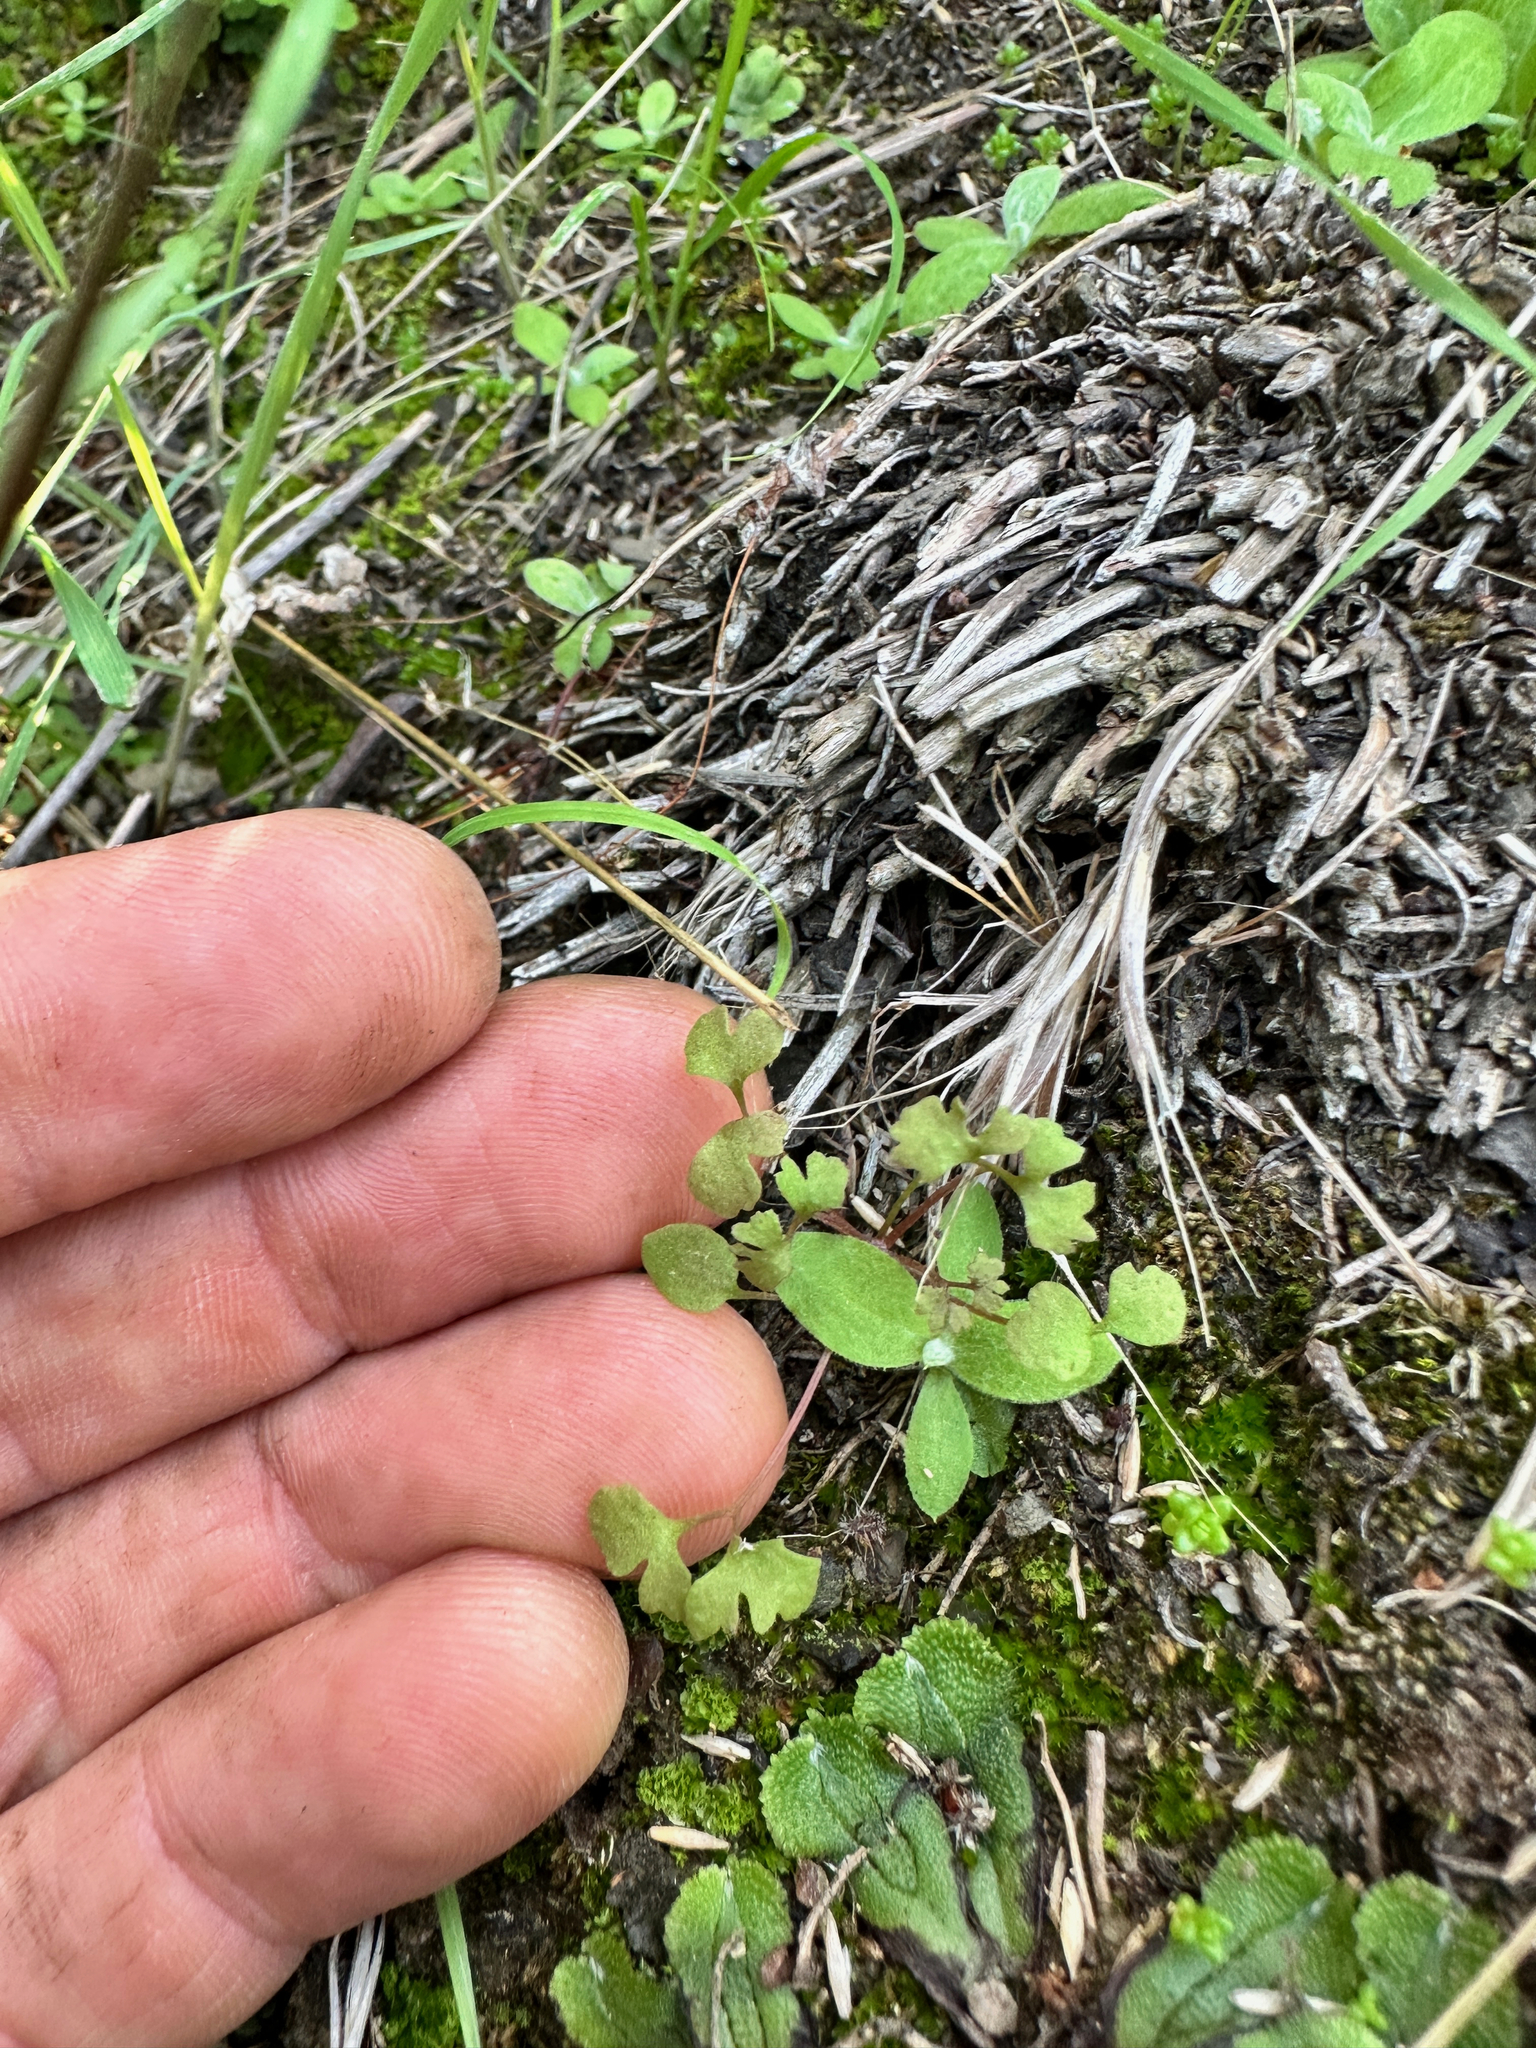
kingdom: Plantae
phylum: Tracheophyta
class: Magnoliopsida
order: Caryophyllales
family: Polygonaceae
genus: Pterostegia
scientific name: Pterostegia drymarioides
